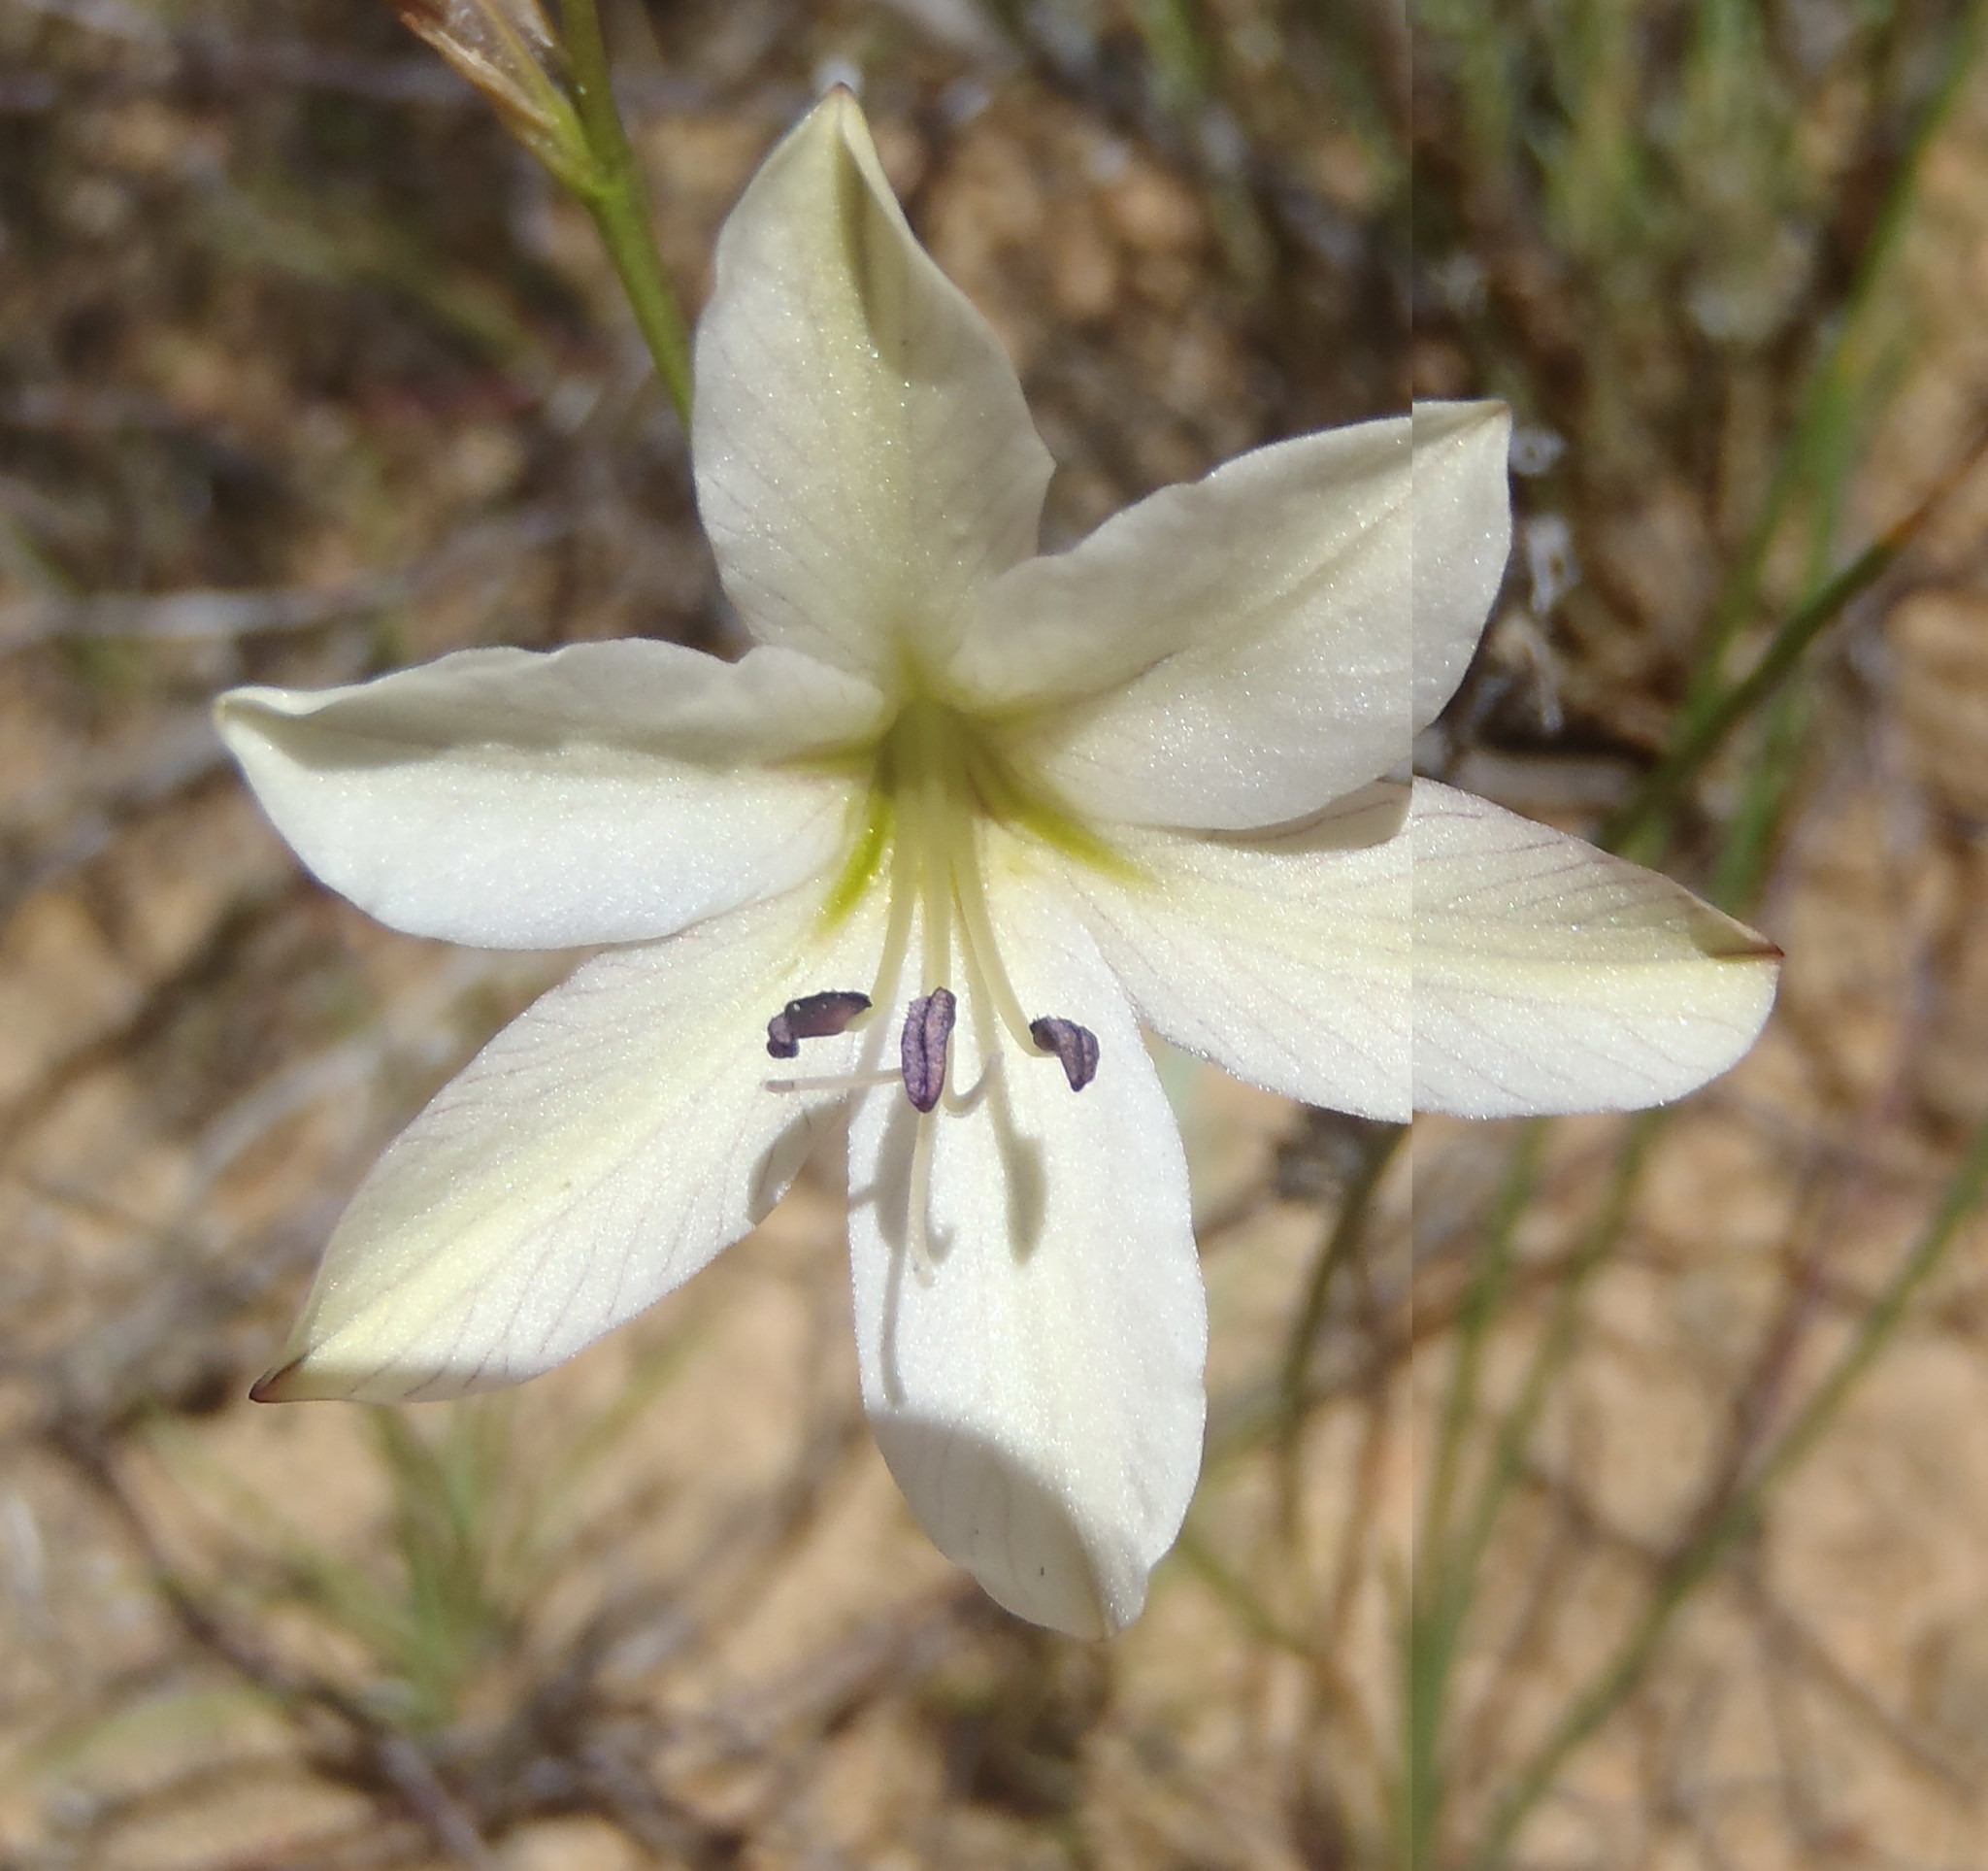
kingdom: Plantae
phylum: Tracheophyta
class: Liliopsida
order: Asparagales
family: Iridaceae
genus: Tritonia
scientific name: Tritonia bakeri
